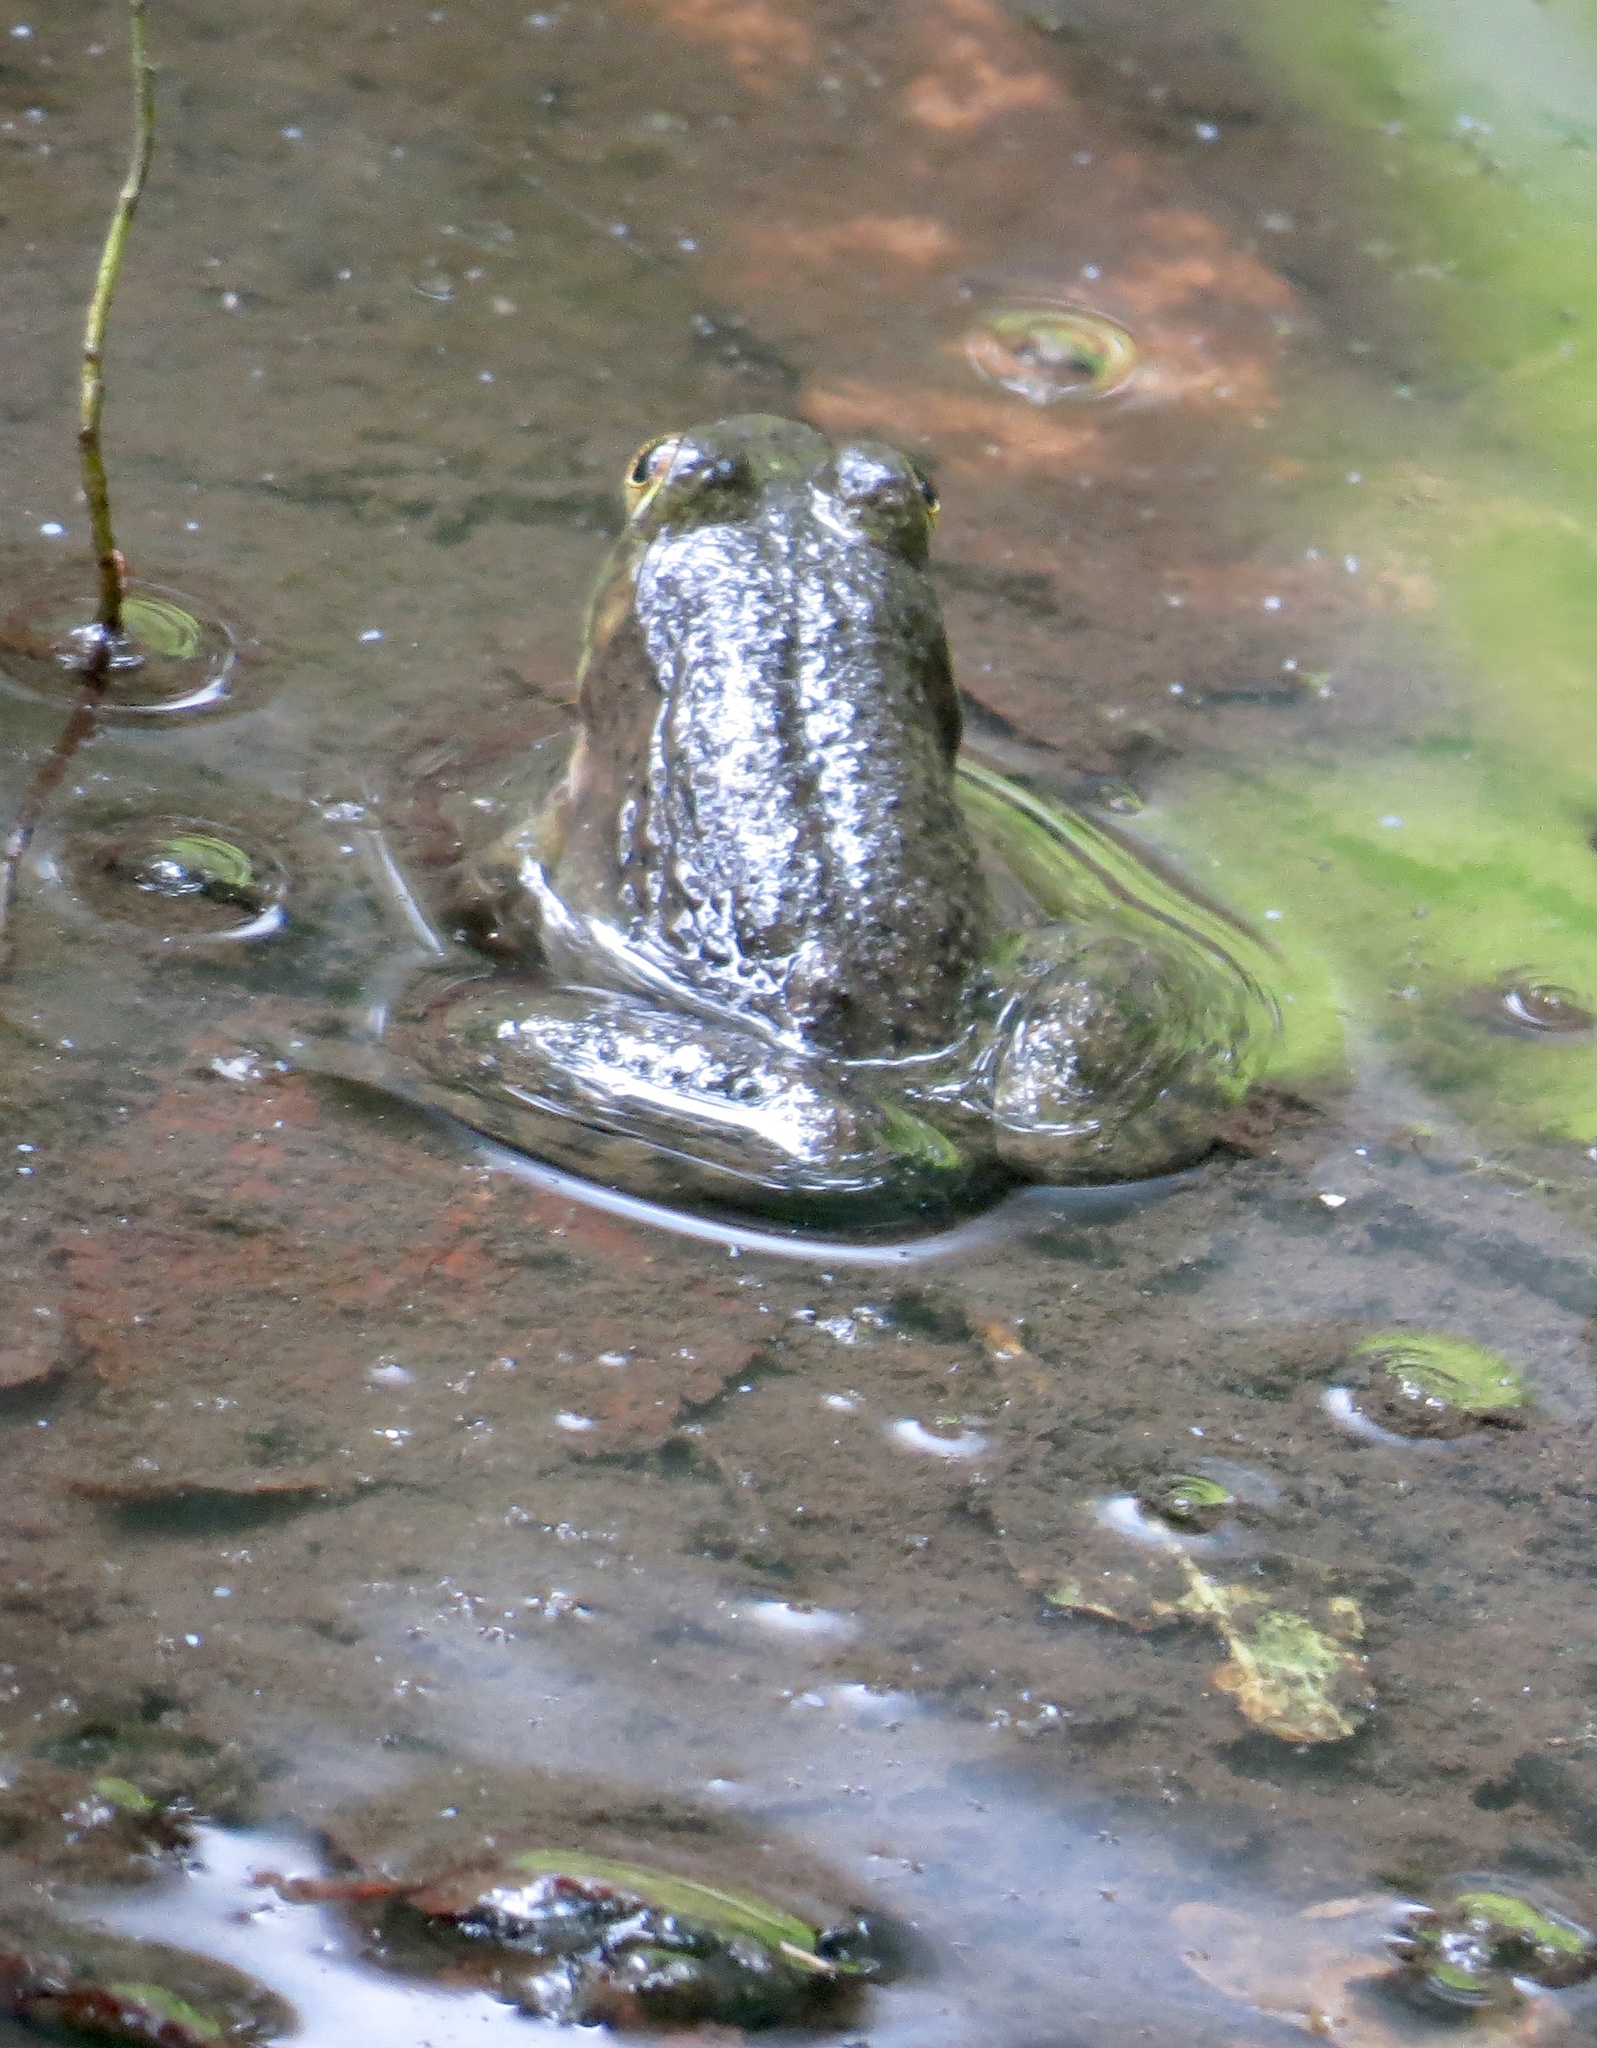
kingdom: Animalia
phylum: Chordata
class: Amphibia
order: Anura
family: Ranidae
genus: Lithobates
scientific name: Lithobates catesbeianus
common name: American bullfrog
